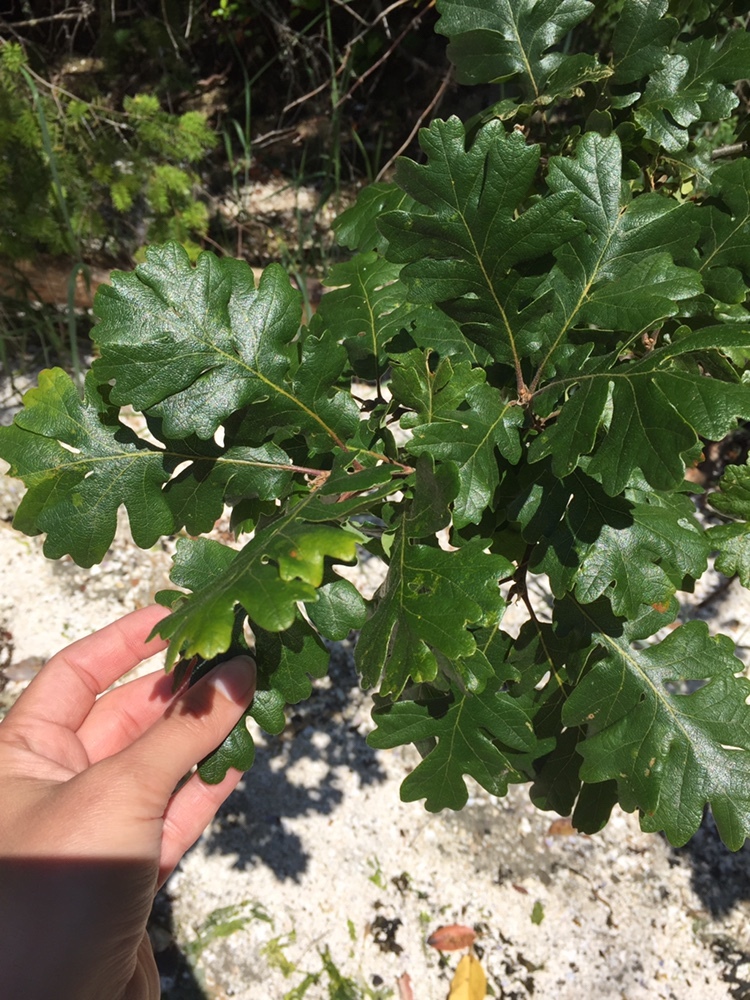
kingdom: Plantae
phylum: Tracheophyta
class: Magnoliopsida
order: Fagales
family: Fagaceae
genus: Quercus
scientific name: Quercus garryana
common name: Garry oak
